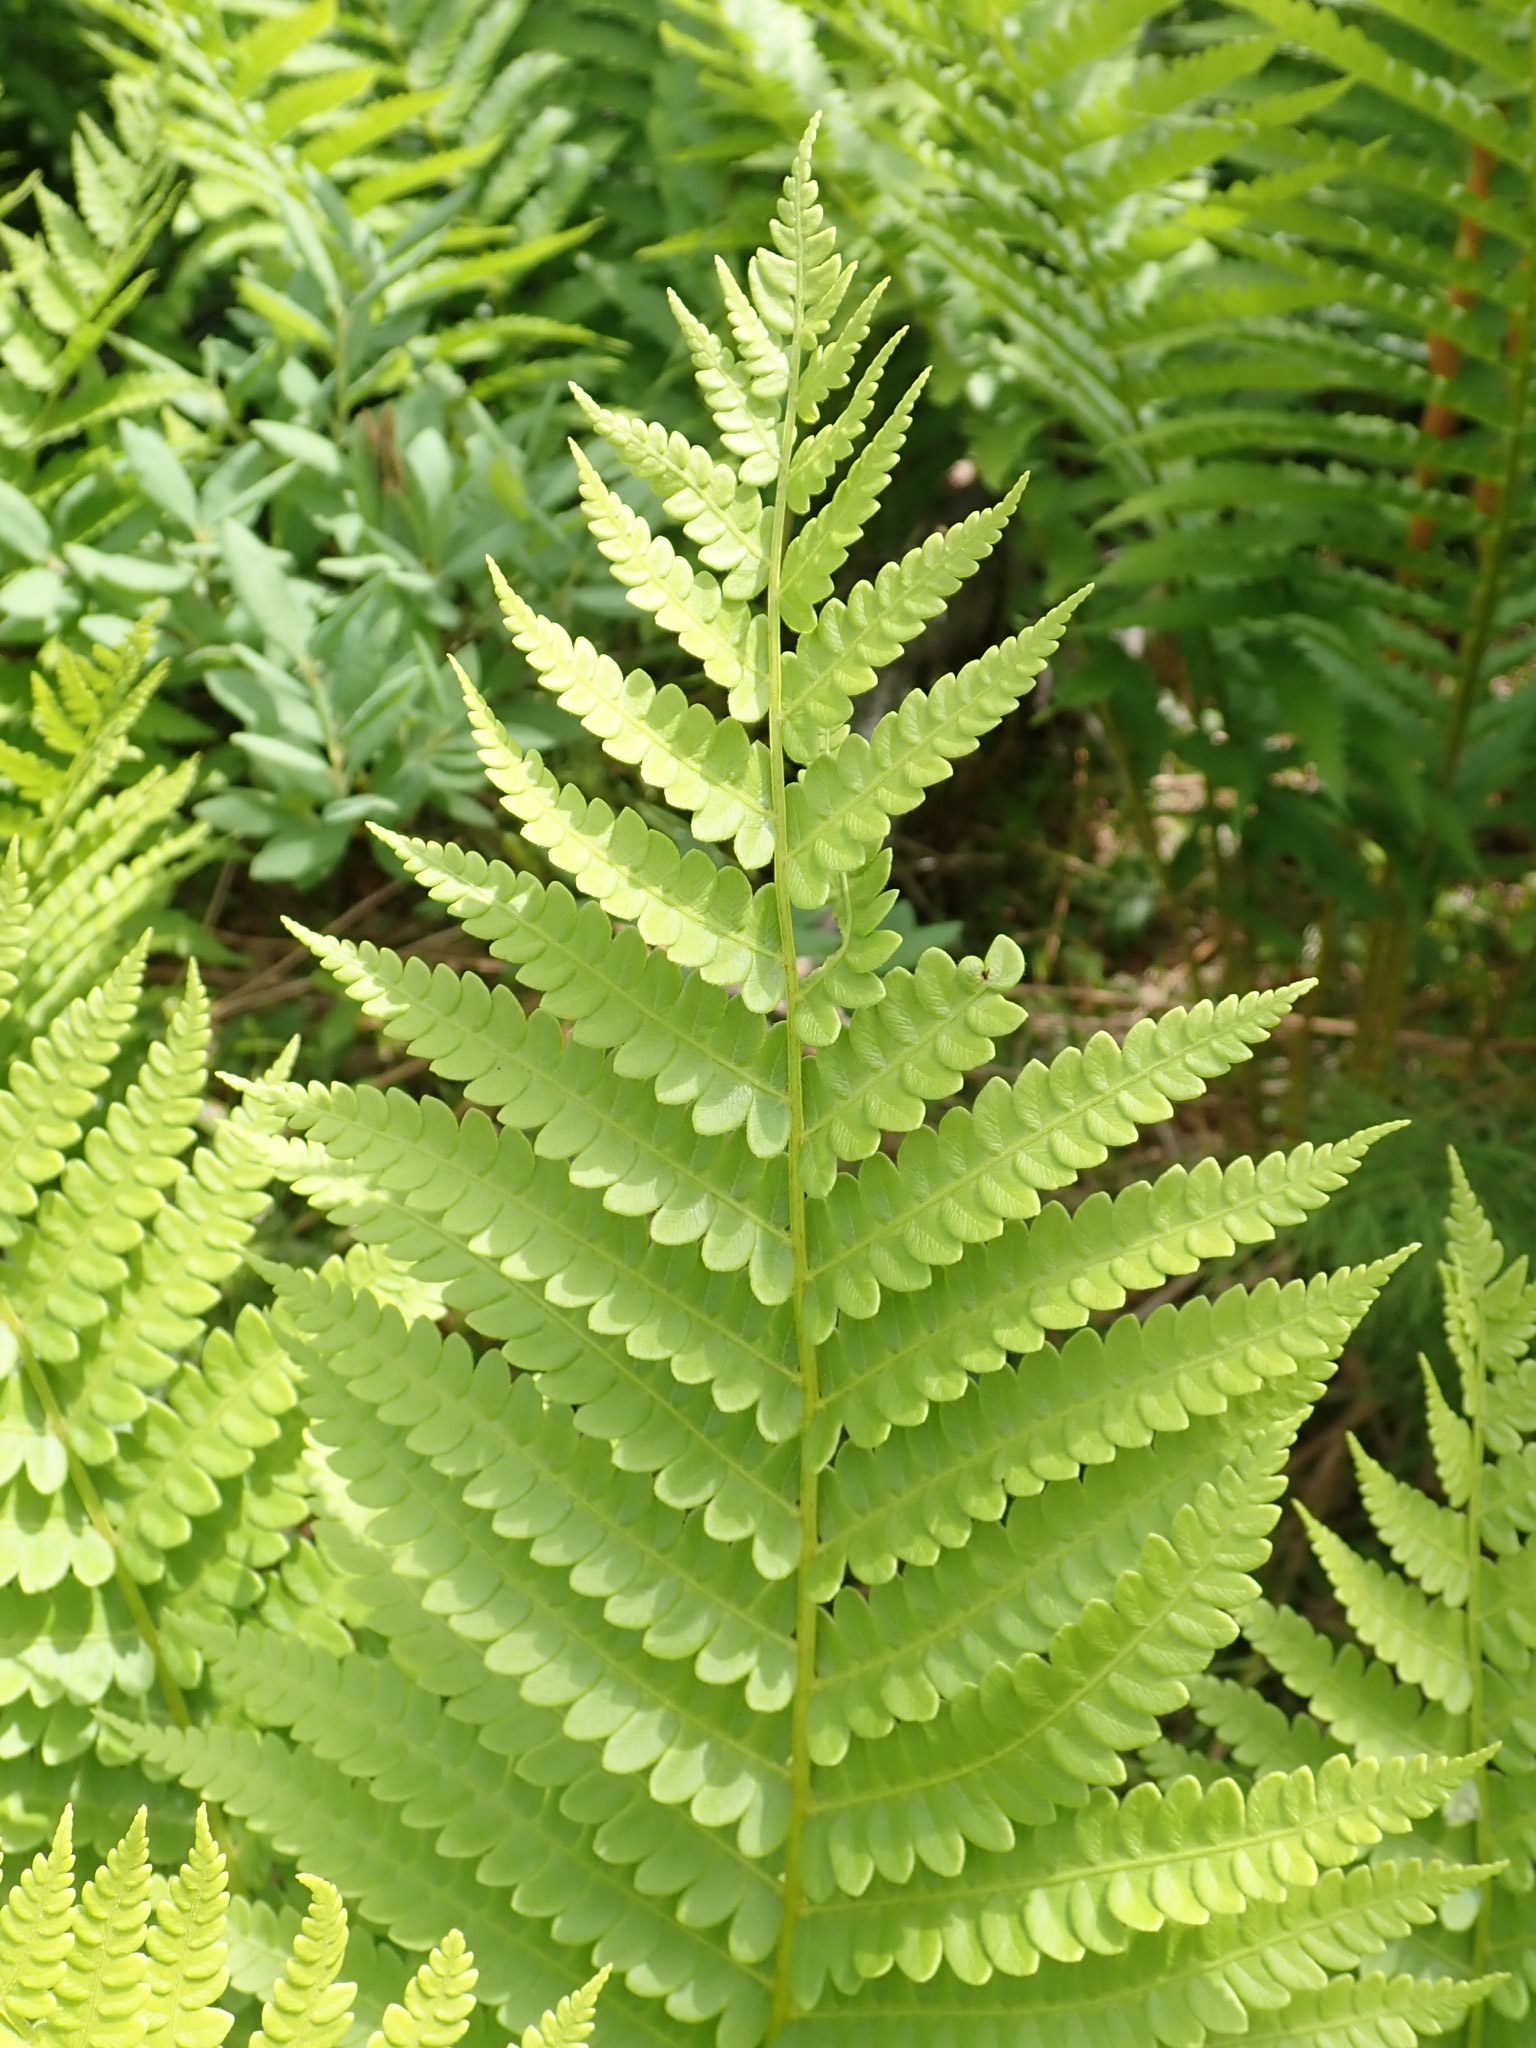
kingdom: Plantae
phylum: Tracheophyta
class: Polypodiopsida
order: Osmundales
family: Osmundaceae
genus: Osmundastrum
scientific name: Osmundastrum cinnamomeum
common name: Cinnamon fern
